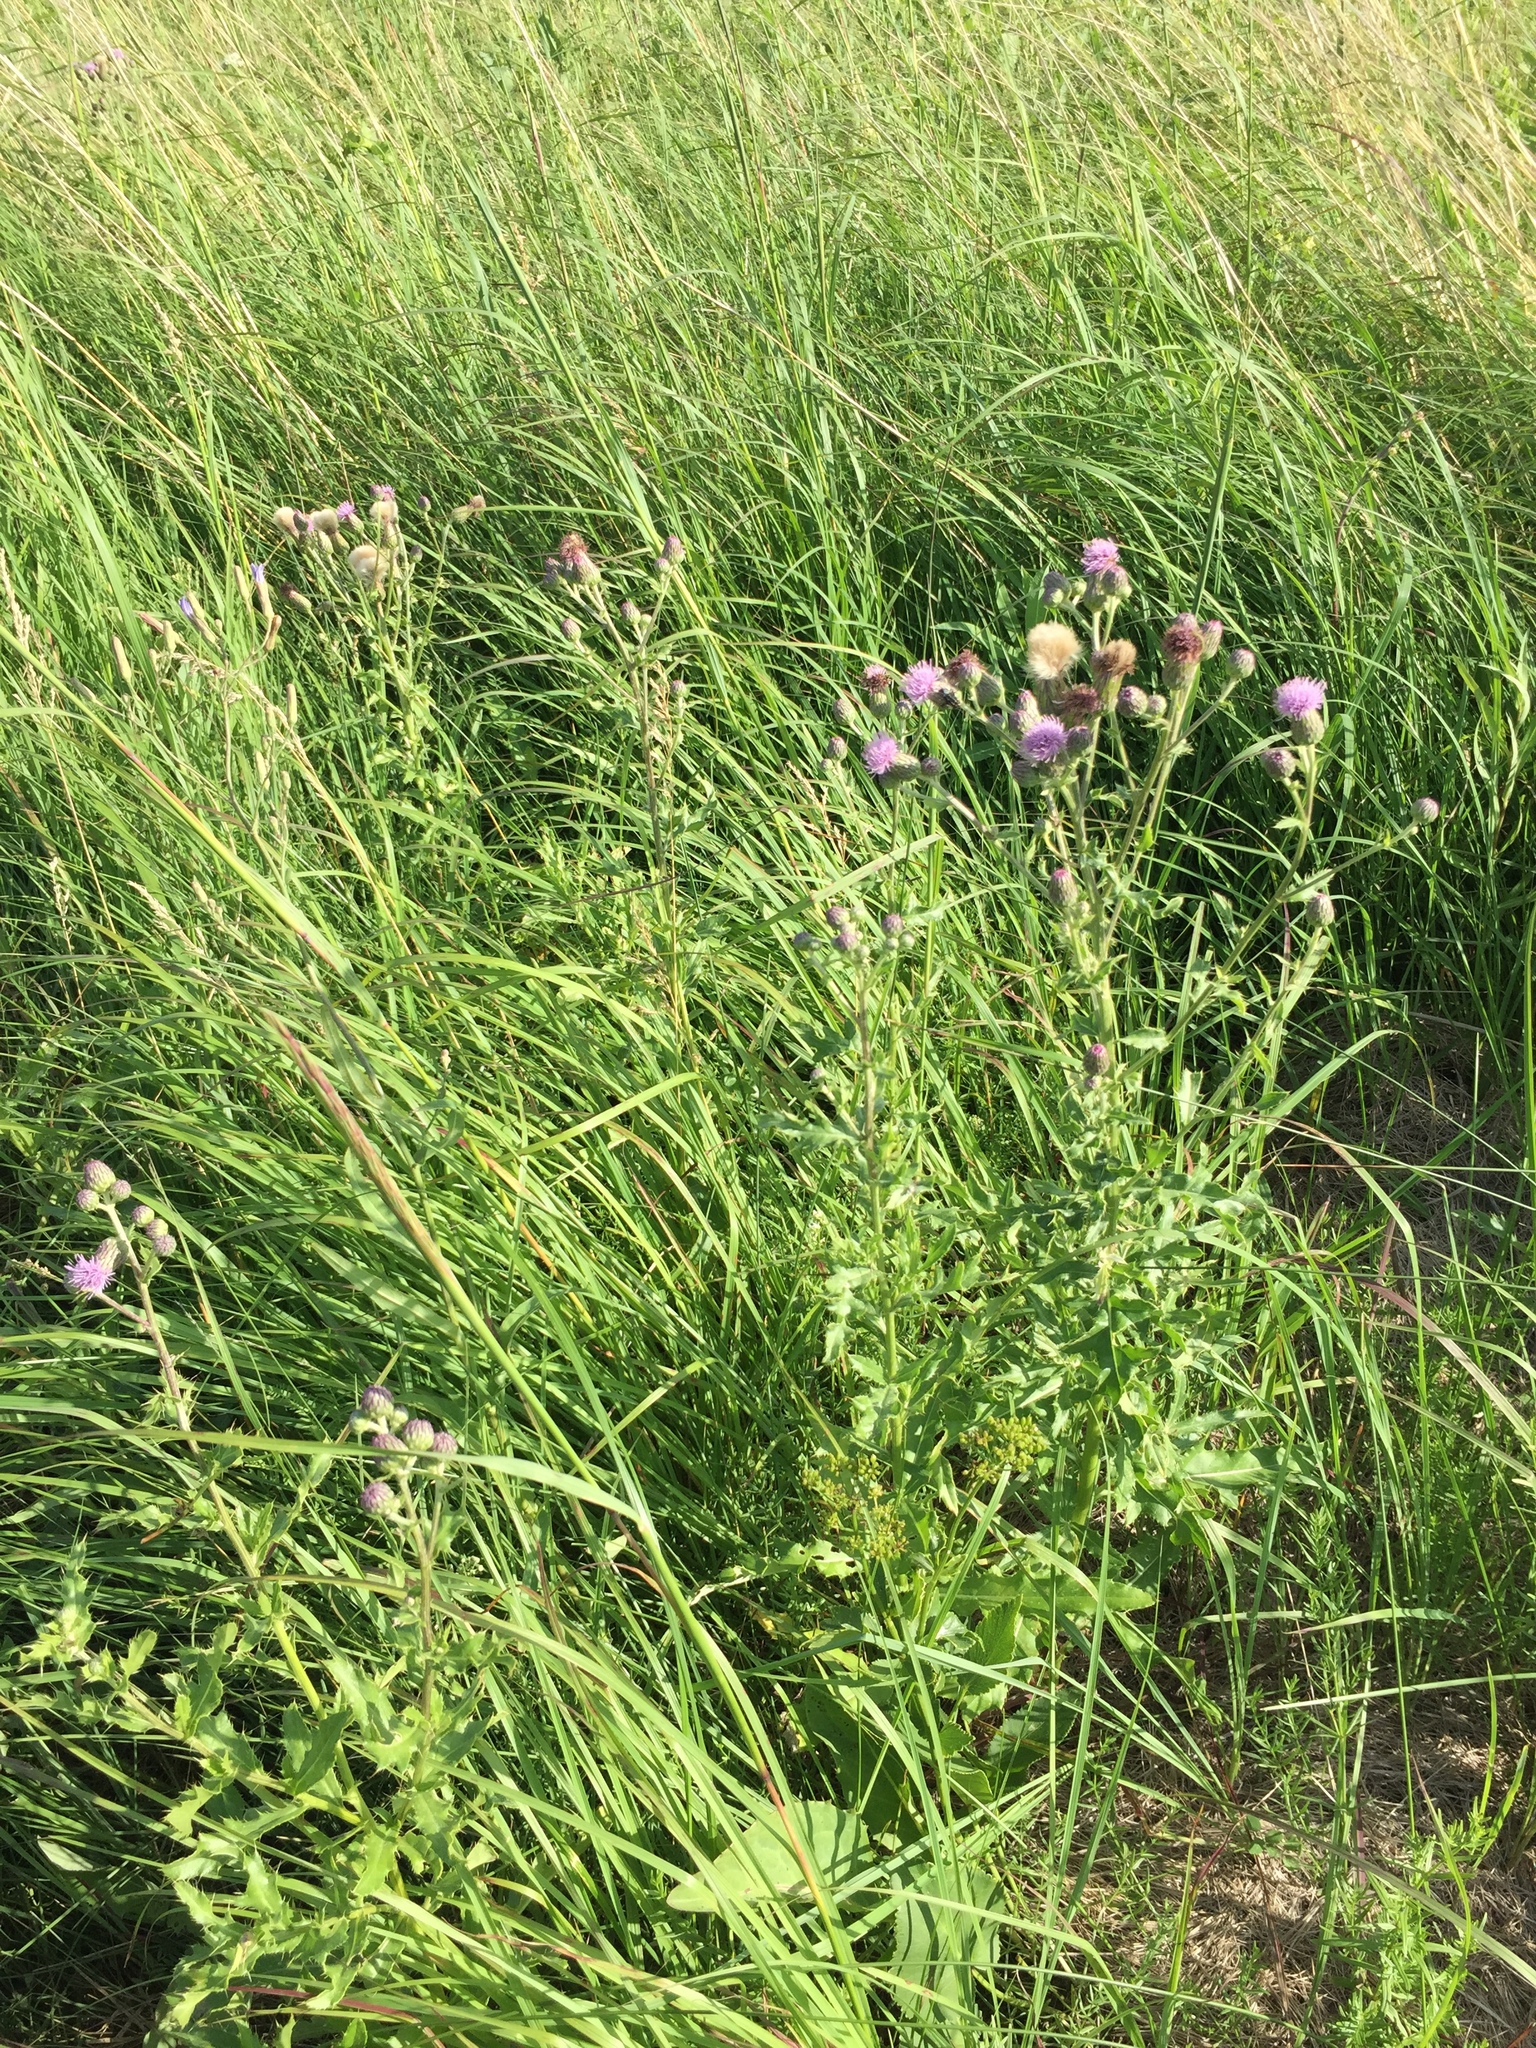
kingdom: Plantae
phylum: Tracheophyta
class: Magnoliopsida
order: Asterales
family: Asteraceae
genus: Cirsium
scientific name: Cirsium arvense
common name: Creeping thistle
